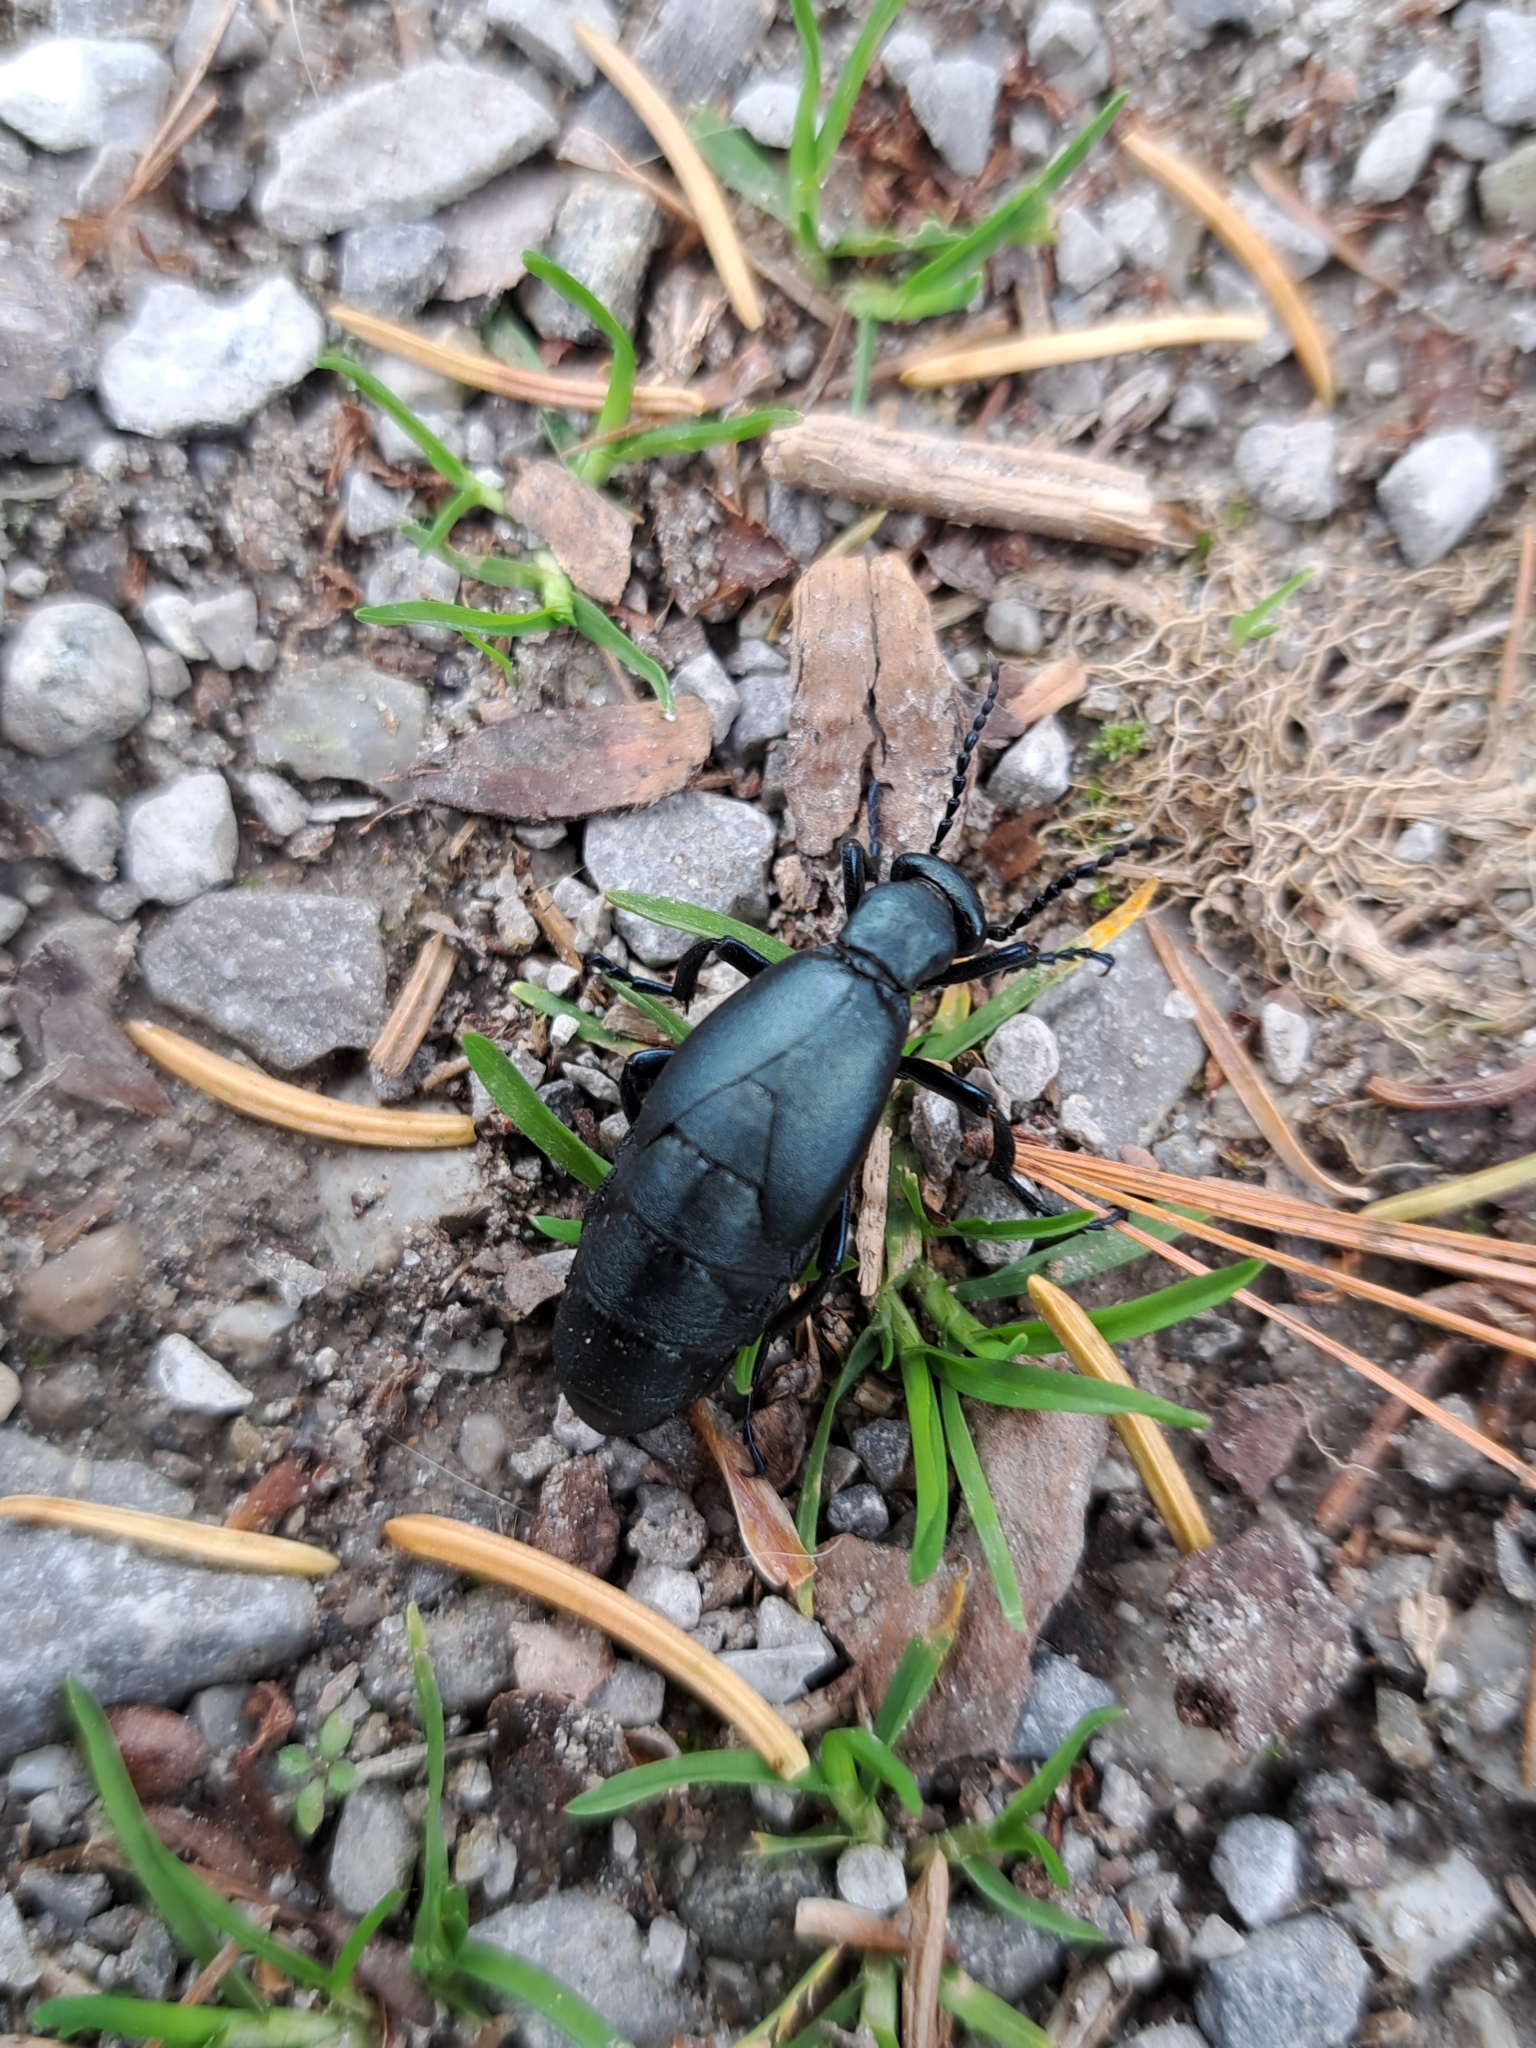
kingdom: Animalia
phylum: Arthropoda
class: Insecta
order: Coleoptera
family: Meloidae
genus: Meloe
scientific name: Meloe campanicollis
